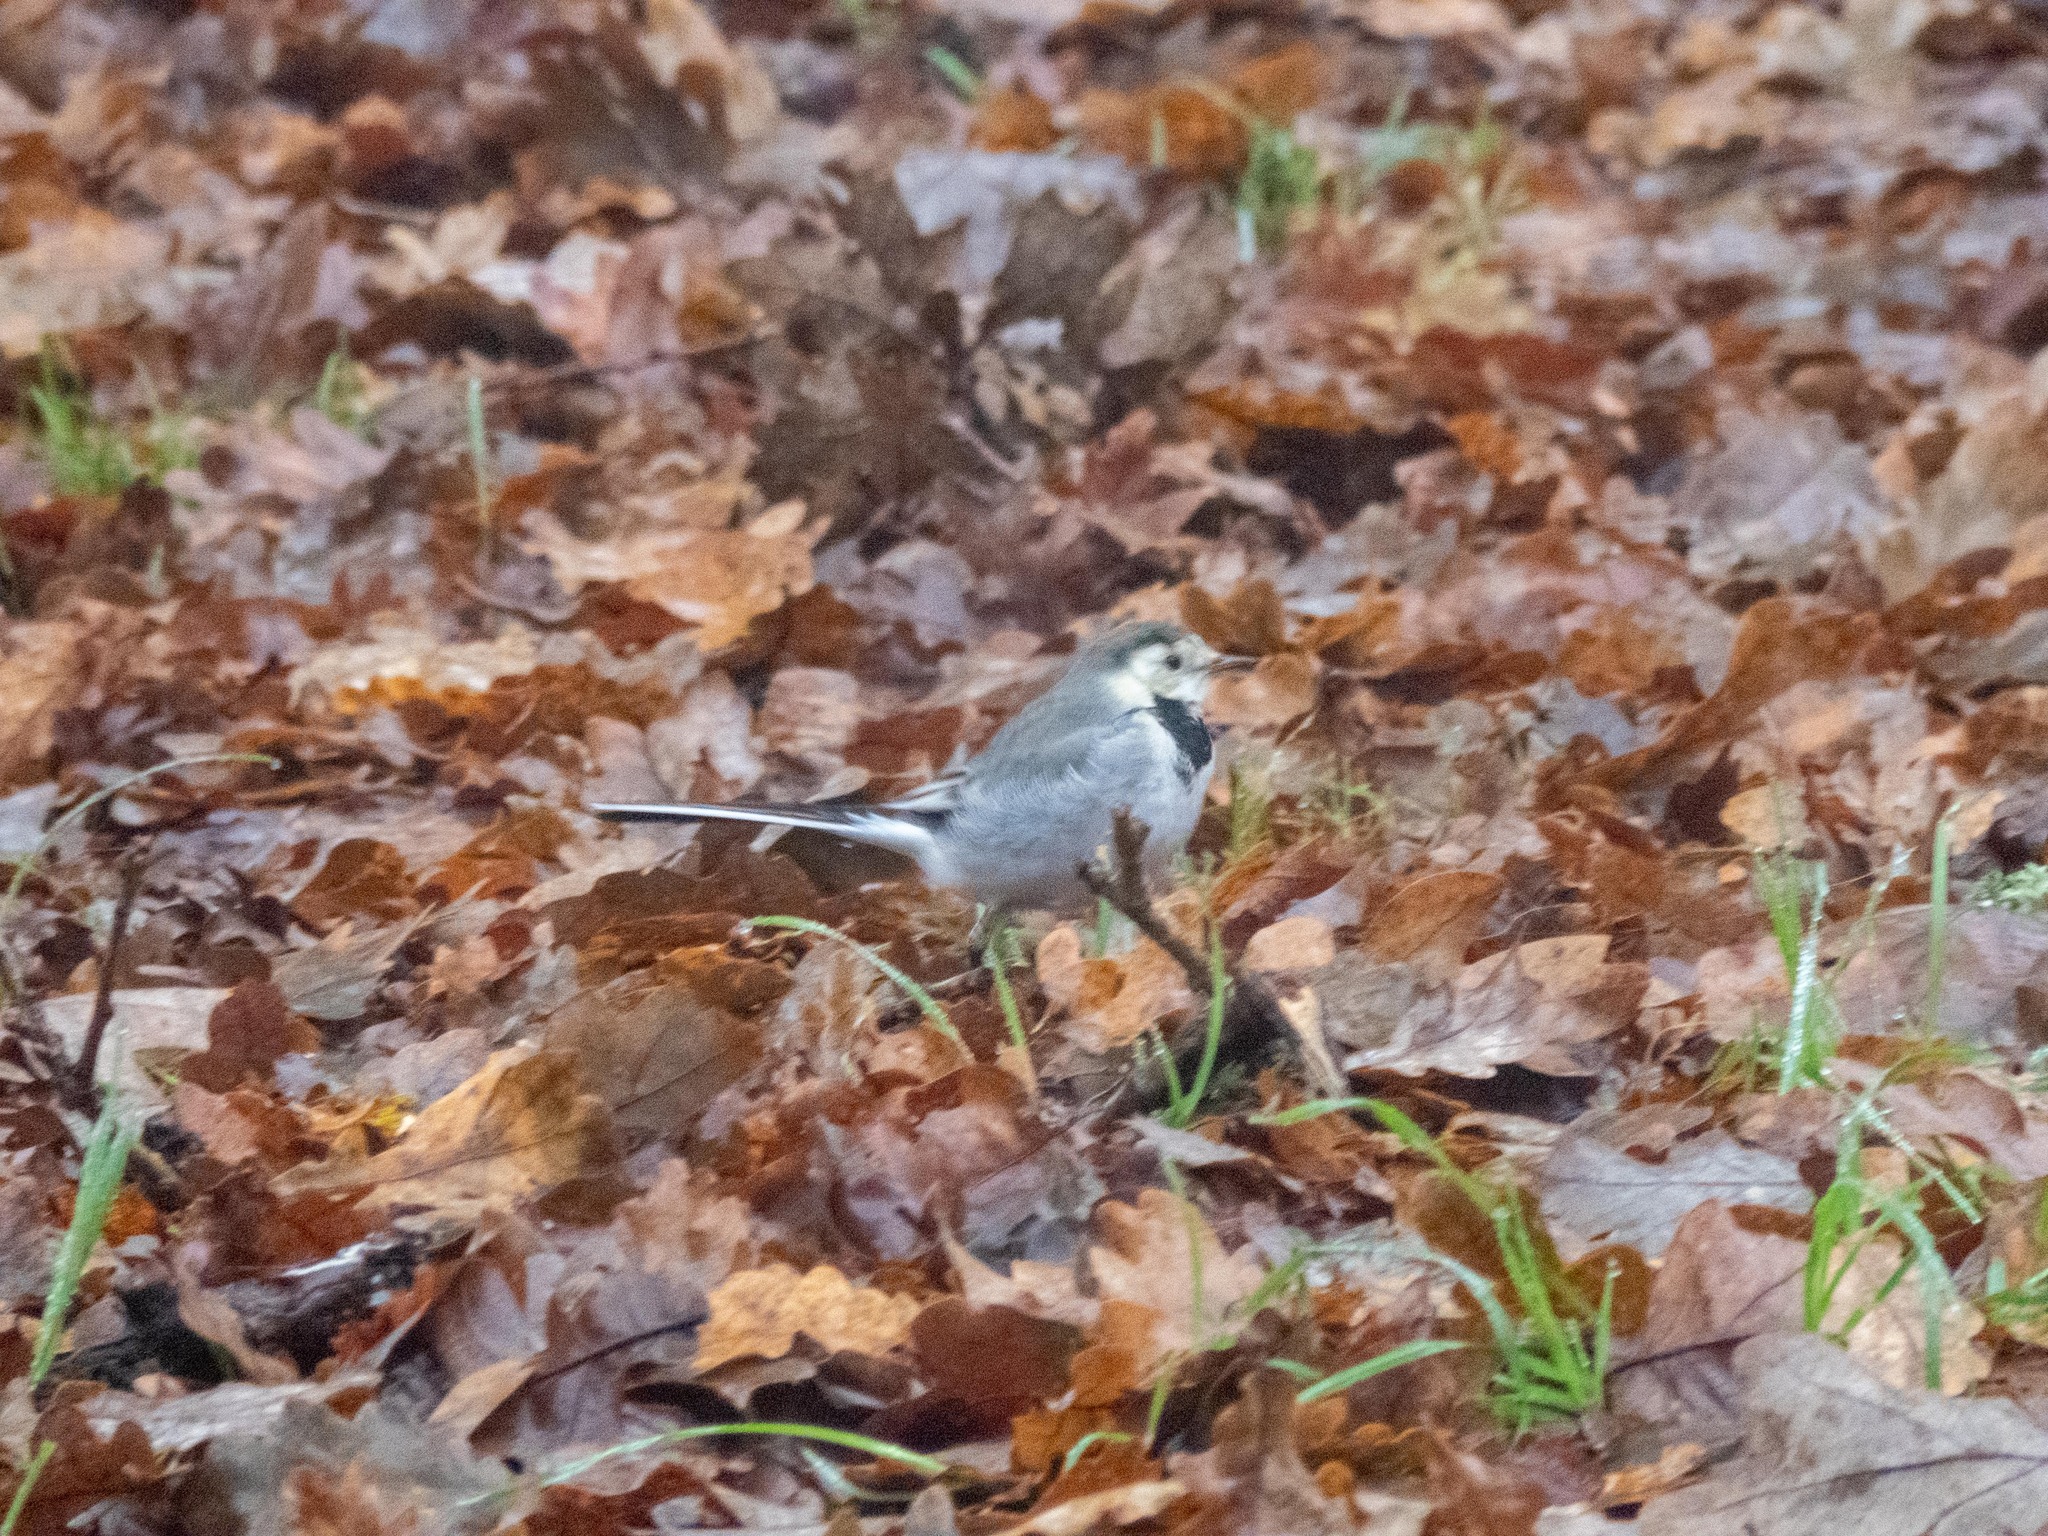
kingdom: Animalia
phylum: Chordata
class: Aves
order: Passeriformes
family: Motacillidae
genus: Motacilla
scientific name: Motacilla alba
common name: White wagtail
